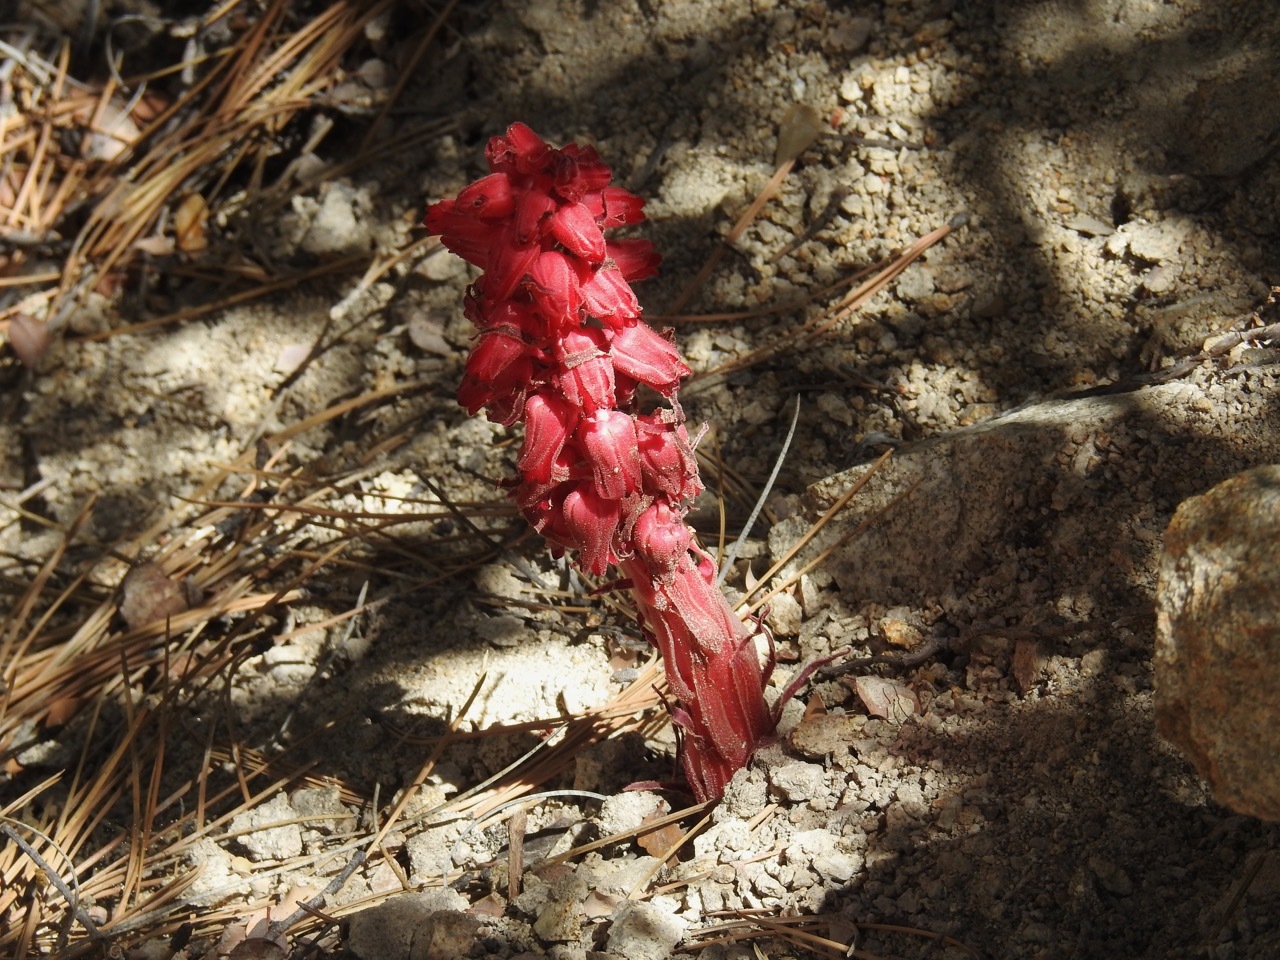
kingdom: Plantae
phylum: Tracheophyta
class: Magnoliopsida
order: Ericales
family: Ericaceae
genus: Sarcodes
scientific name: Sarcodes sanguinea
